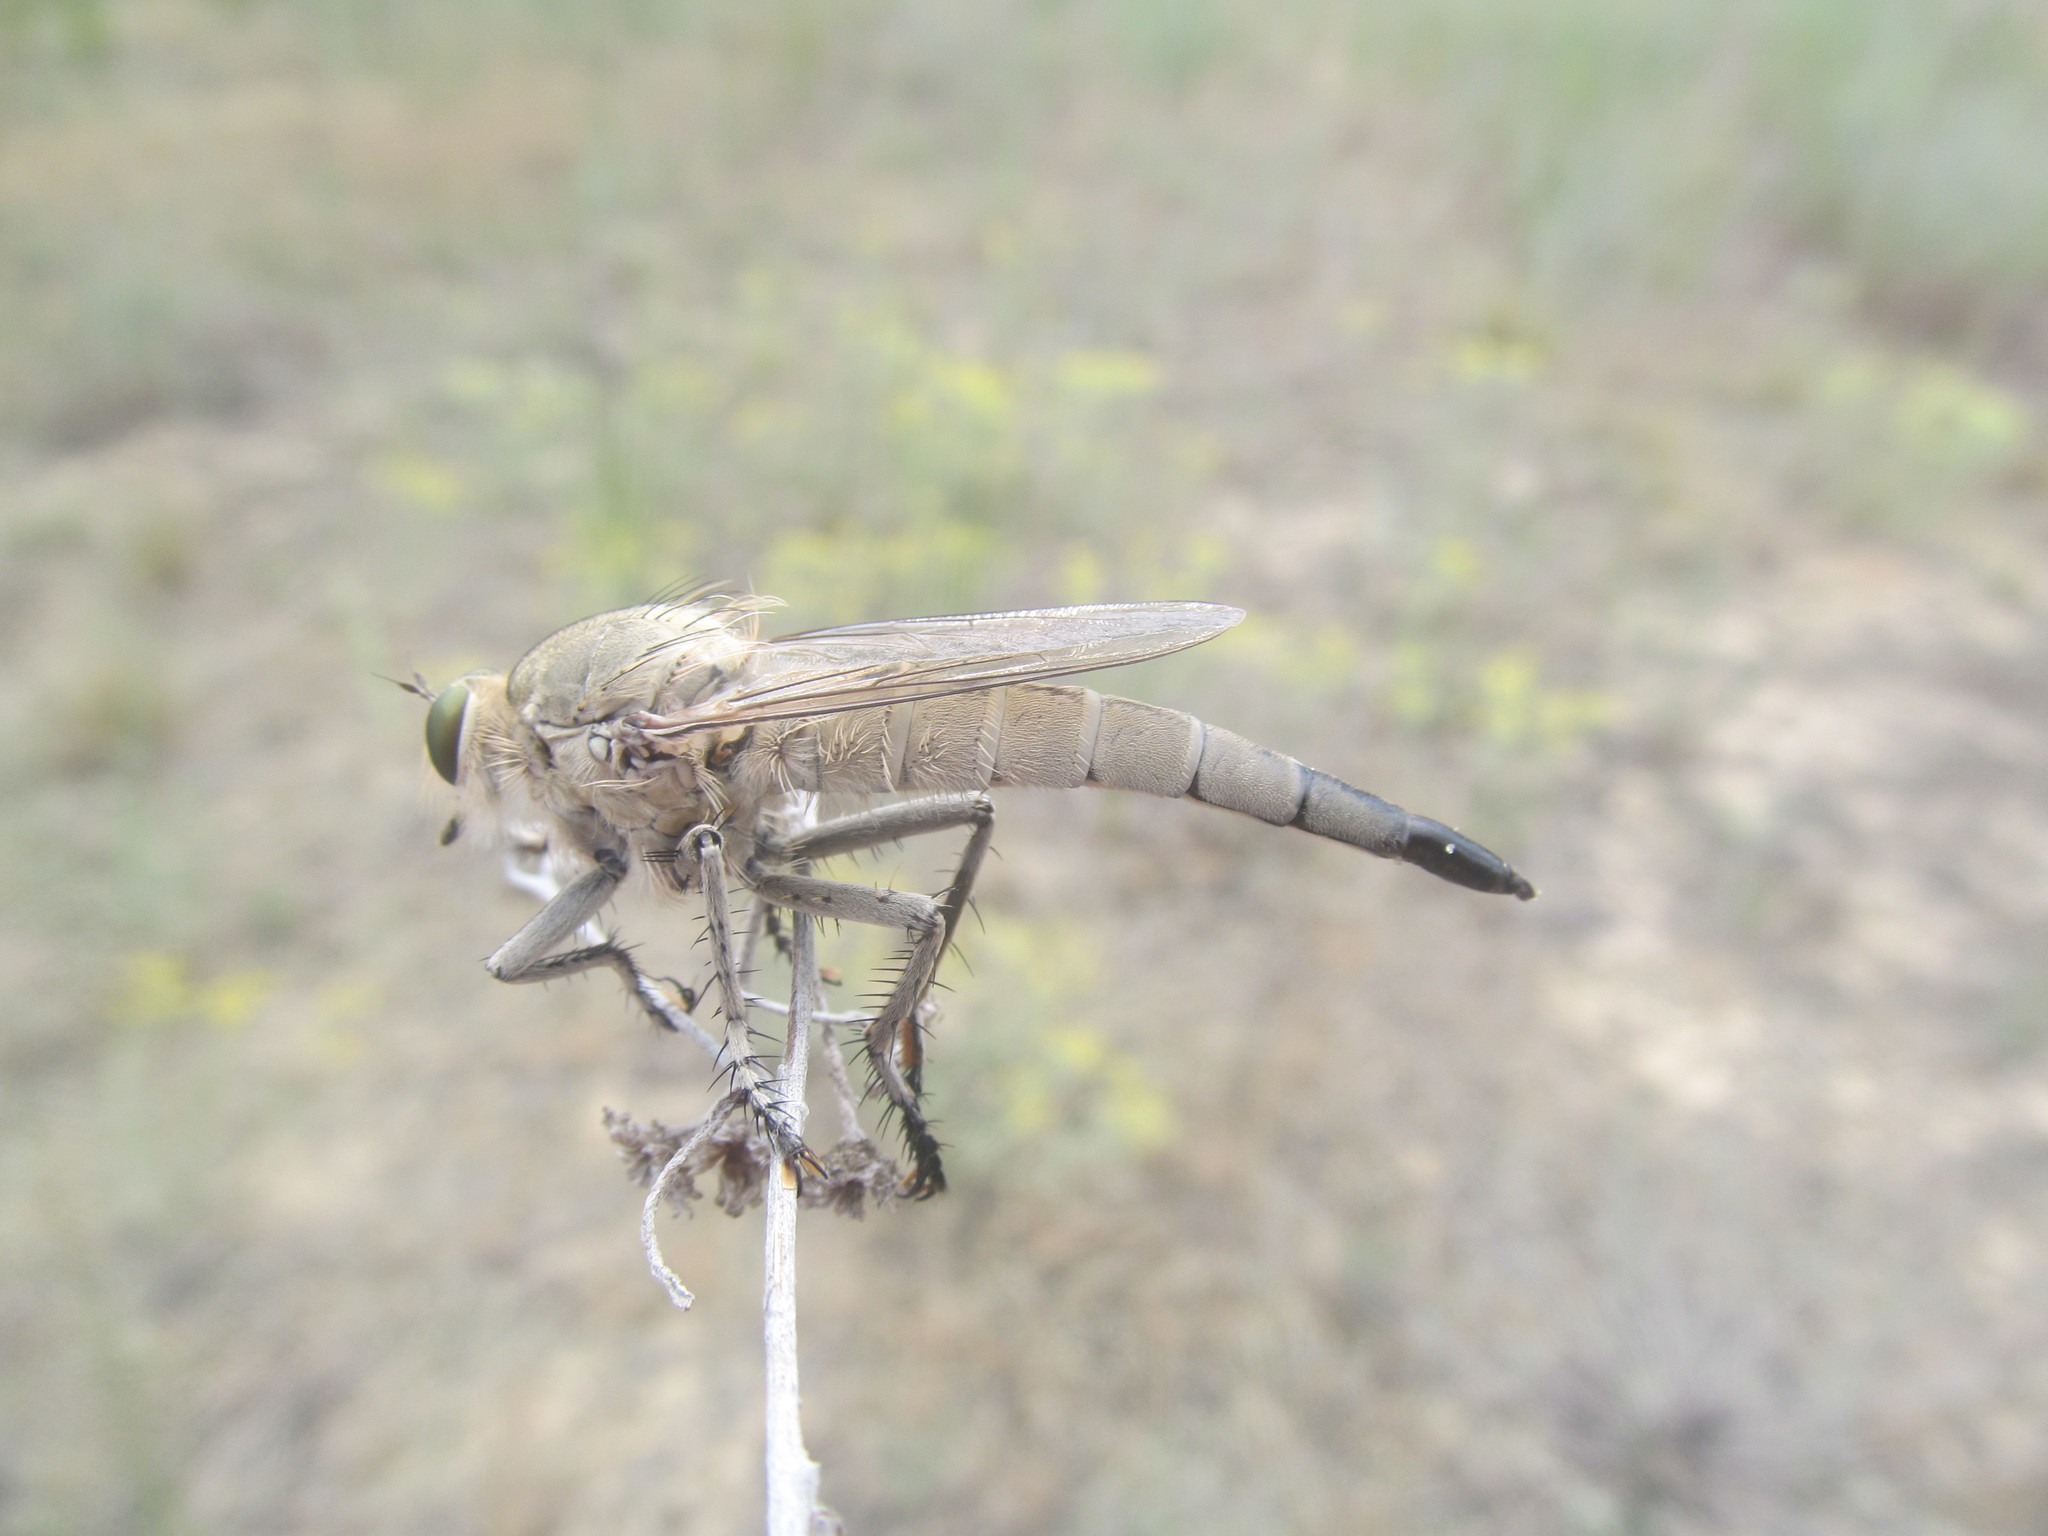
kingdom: Animalia
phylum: Arthropoda
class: Insecta
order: Diptera
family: Asilidae
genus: Satanas
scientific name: Satanas gigas
